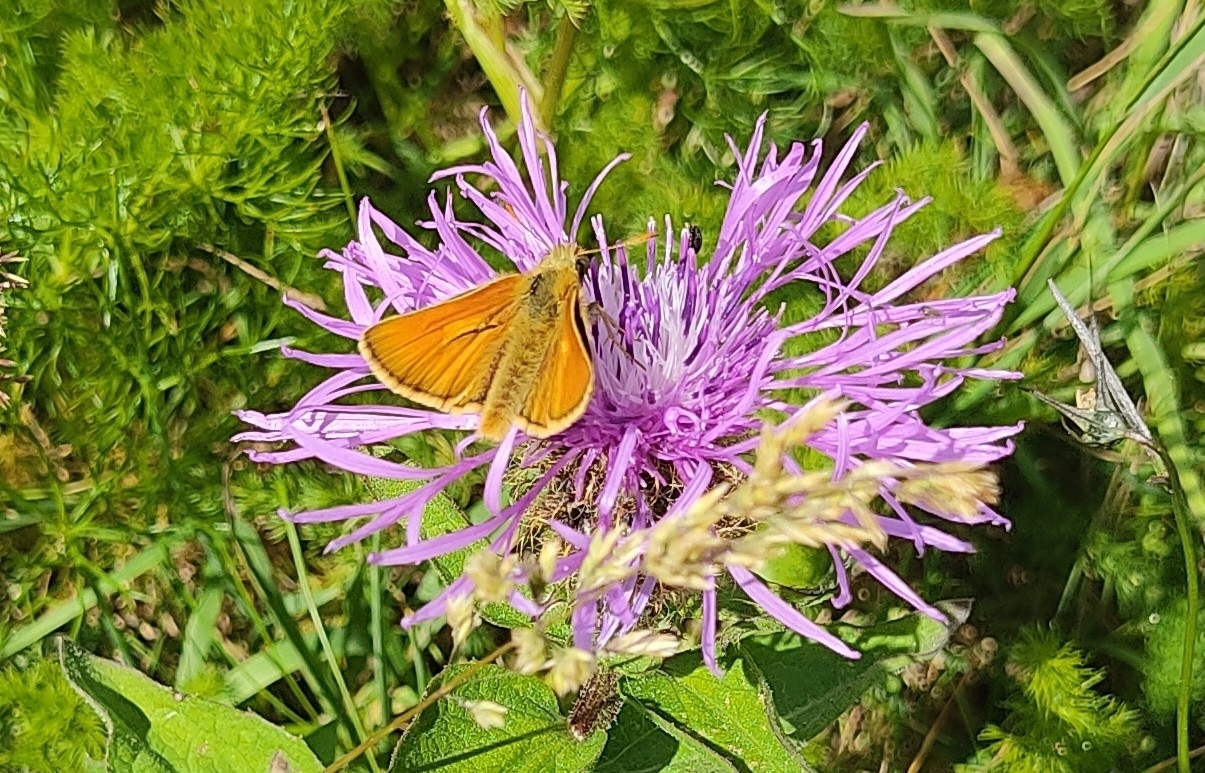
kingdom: Animalia
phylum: Arthropoda
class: Insecta
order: Lepidoptera
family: Hesperiidae
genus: Thymelicus
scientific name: Thymelicus sylvestris
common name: Small skipper
